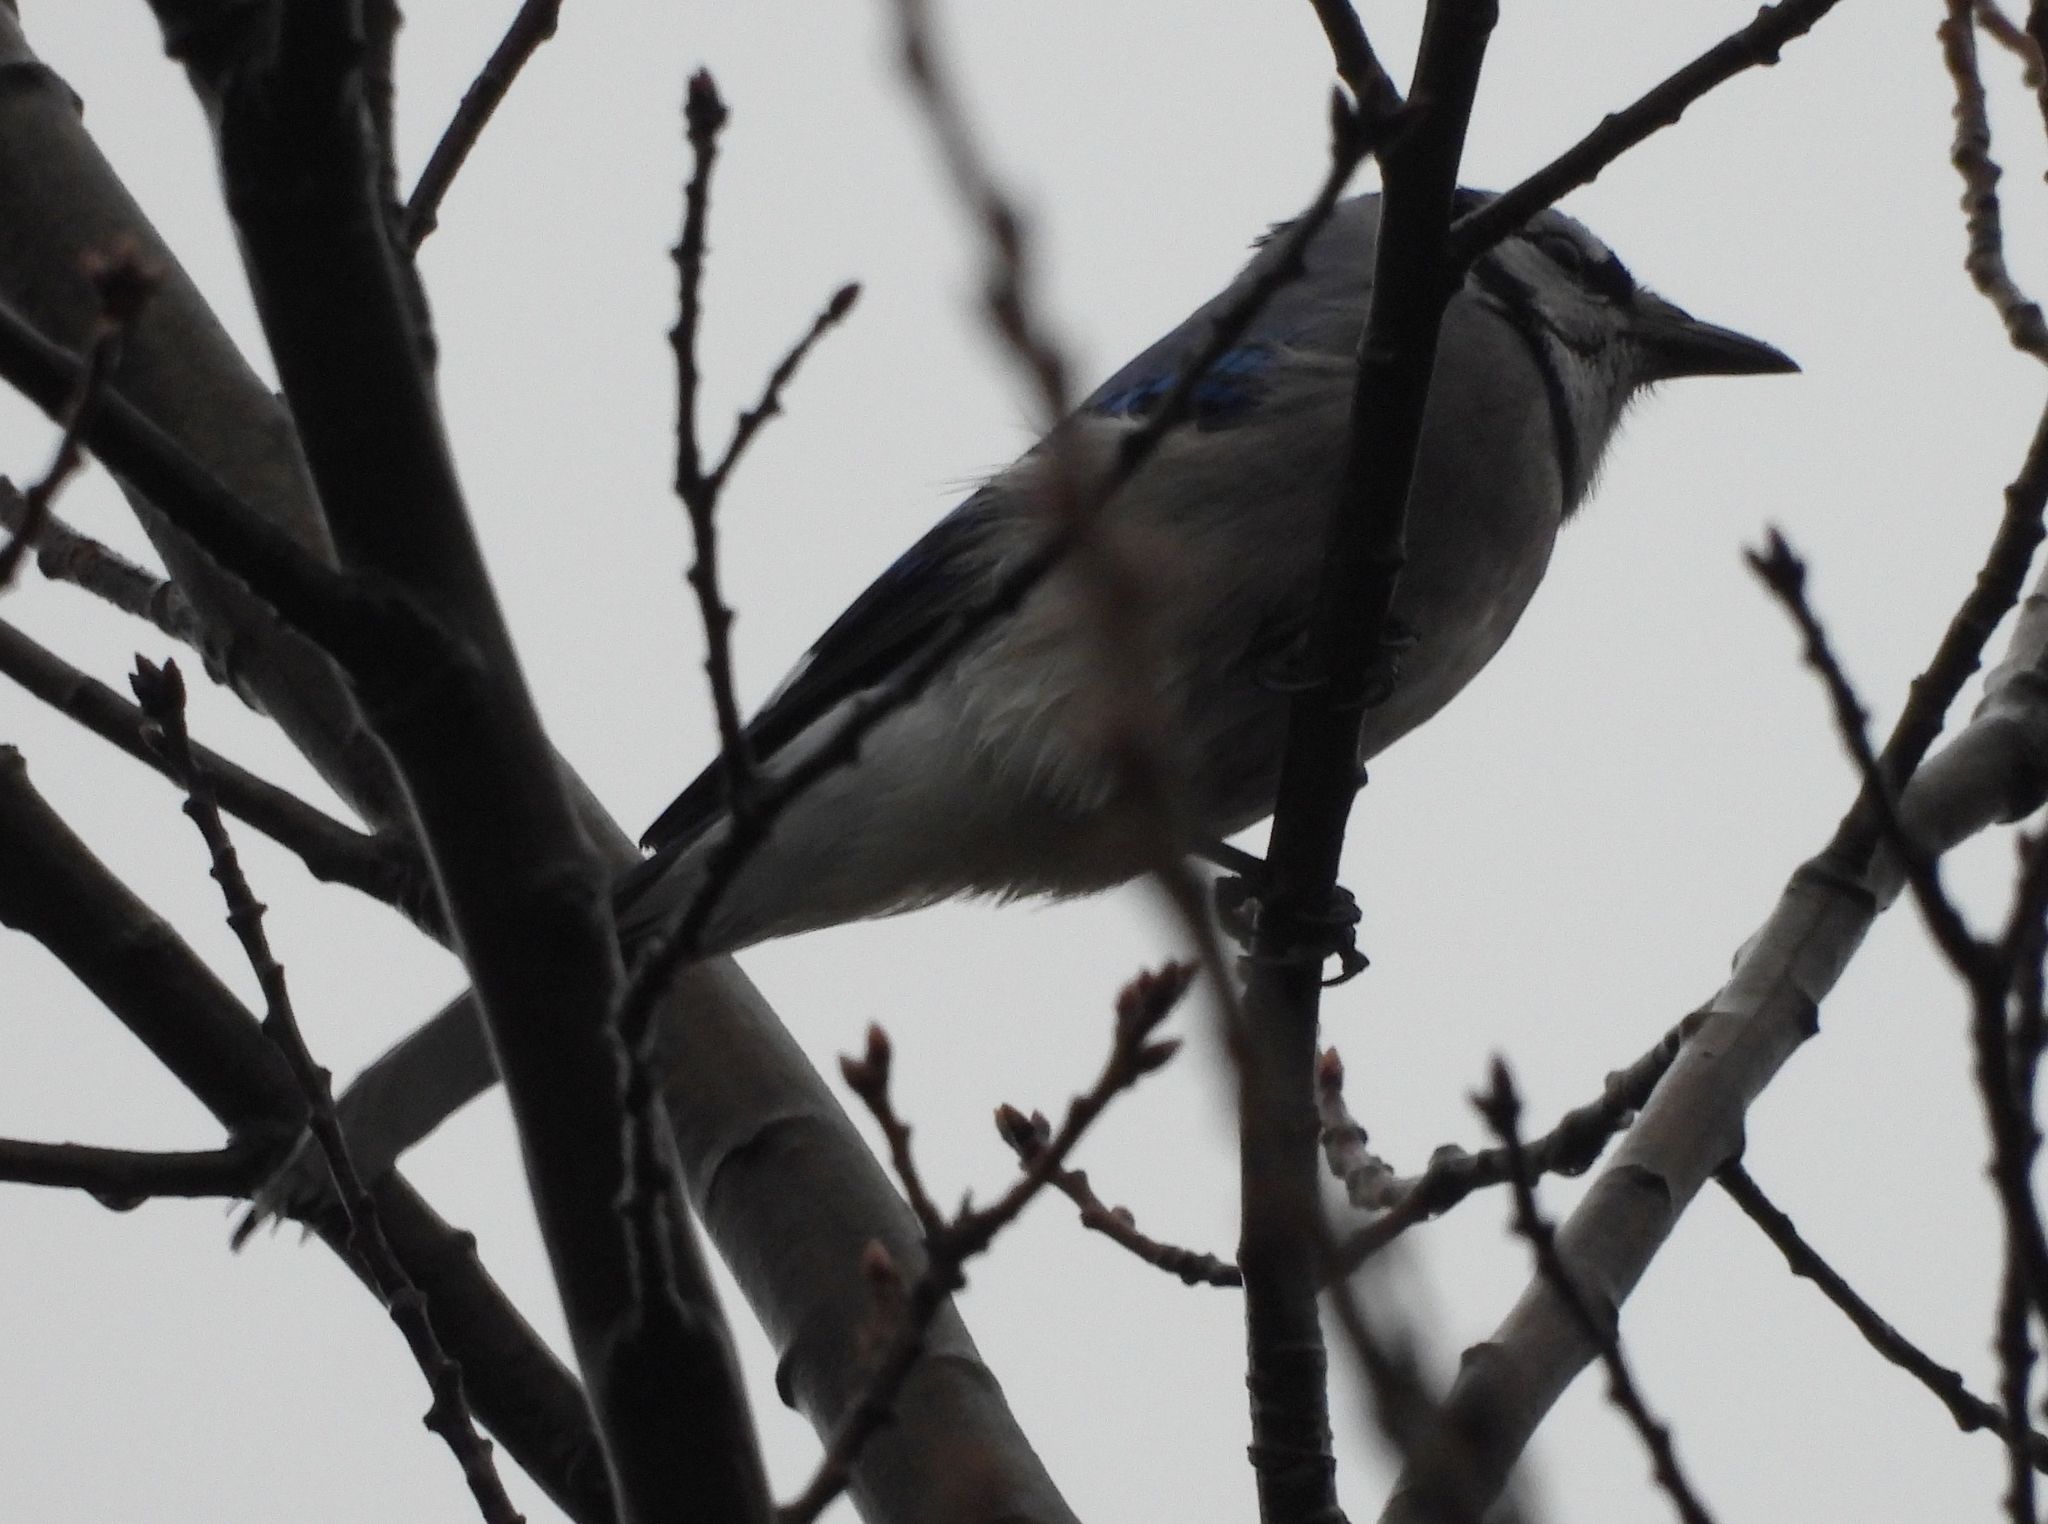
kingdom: Animalia
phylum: Chordata
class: Aves
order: Passeriformes
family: Corvidae
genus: Cyanocitta
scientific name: Cyanocitta cristata
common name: Blue jay
